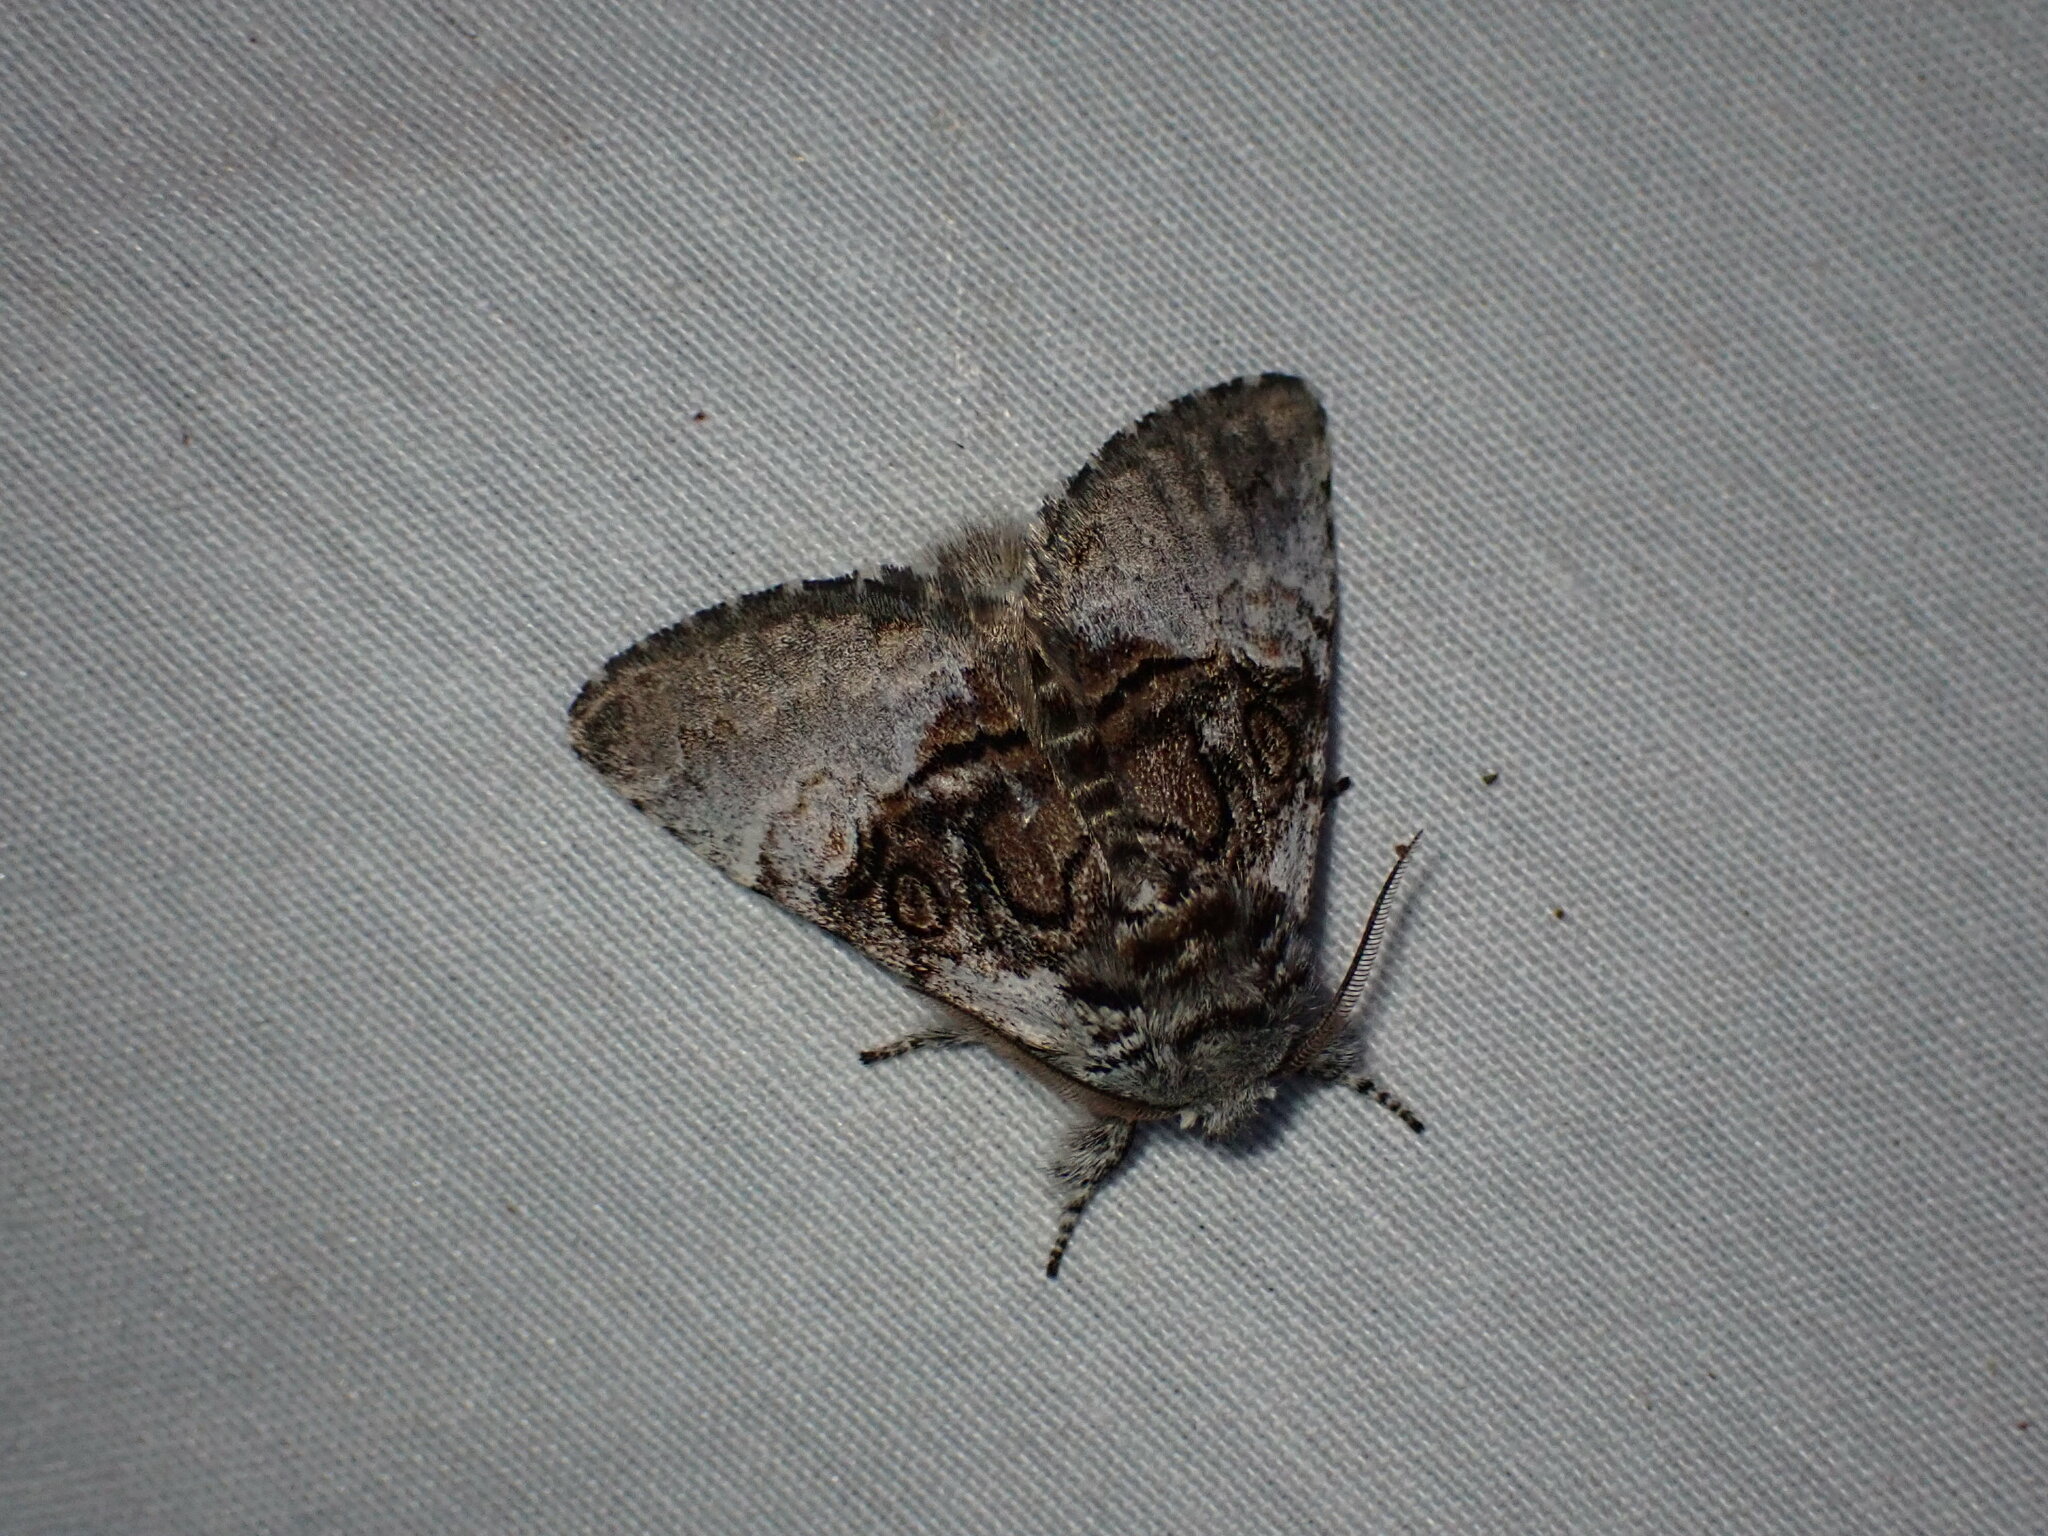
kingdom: Animalia
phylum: Arthropoda
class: Insecta
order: Lepidoptera
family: Noctuidae
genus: Colocasia
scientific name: Colocasia coryli
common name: Nut-tree tussock
